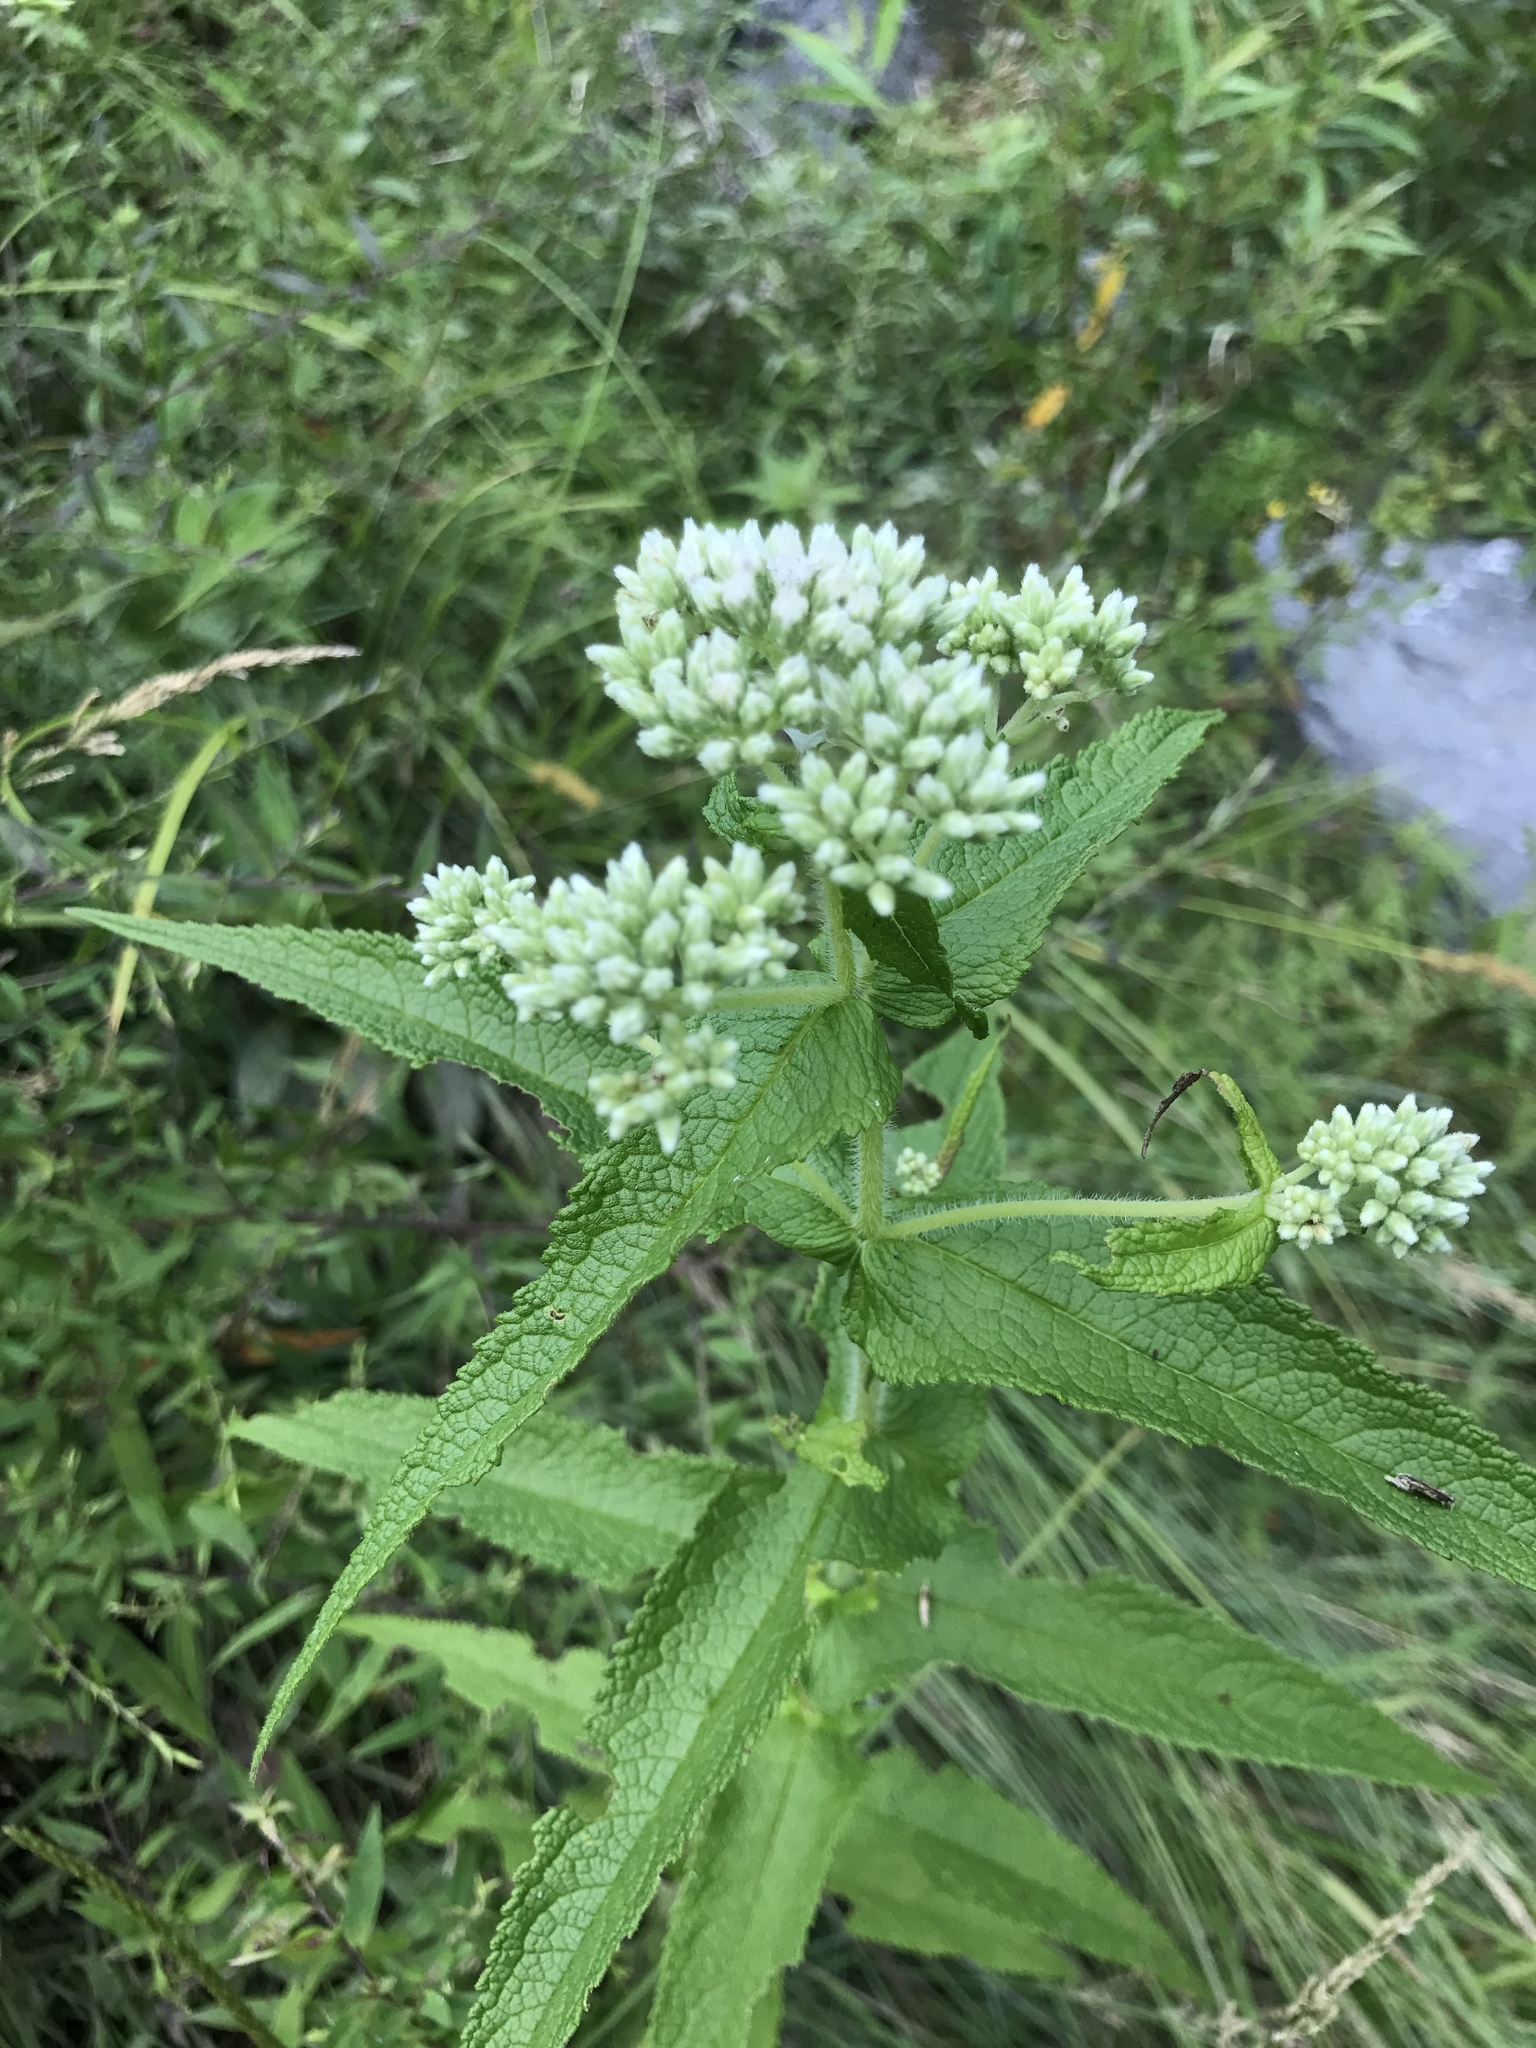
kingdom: Plantae
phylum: Tracheophyta
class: Magnoliopsida
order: Asterales
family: Asteraceae
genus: Eupatorium
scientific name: Eupatorium perfoliatum
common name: Boneset
